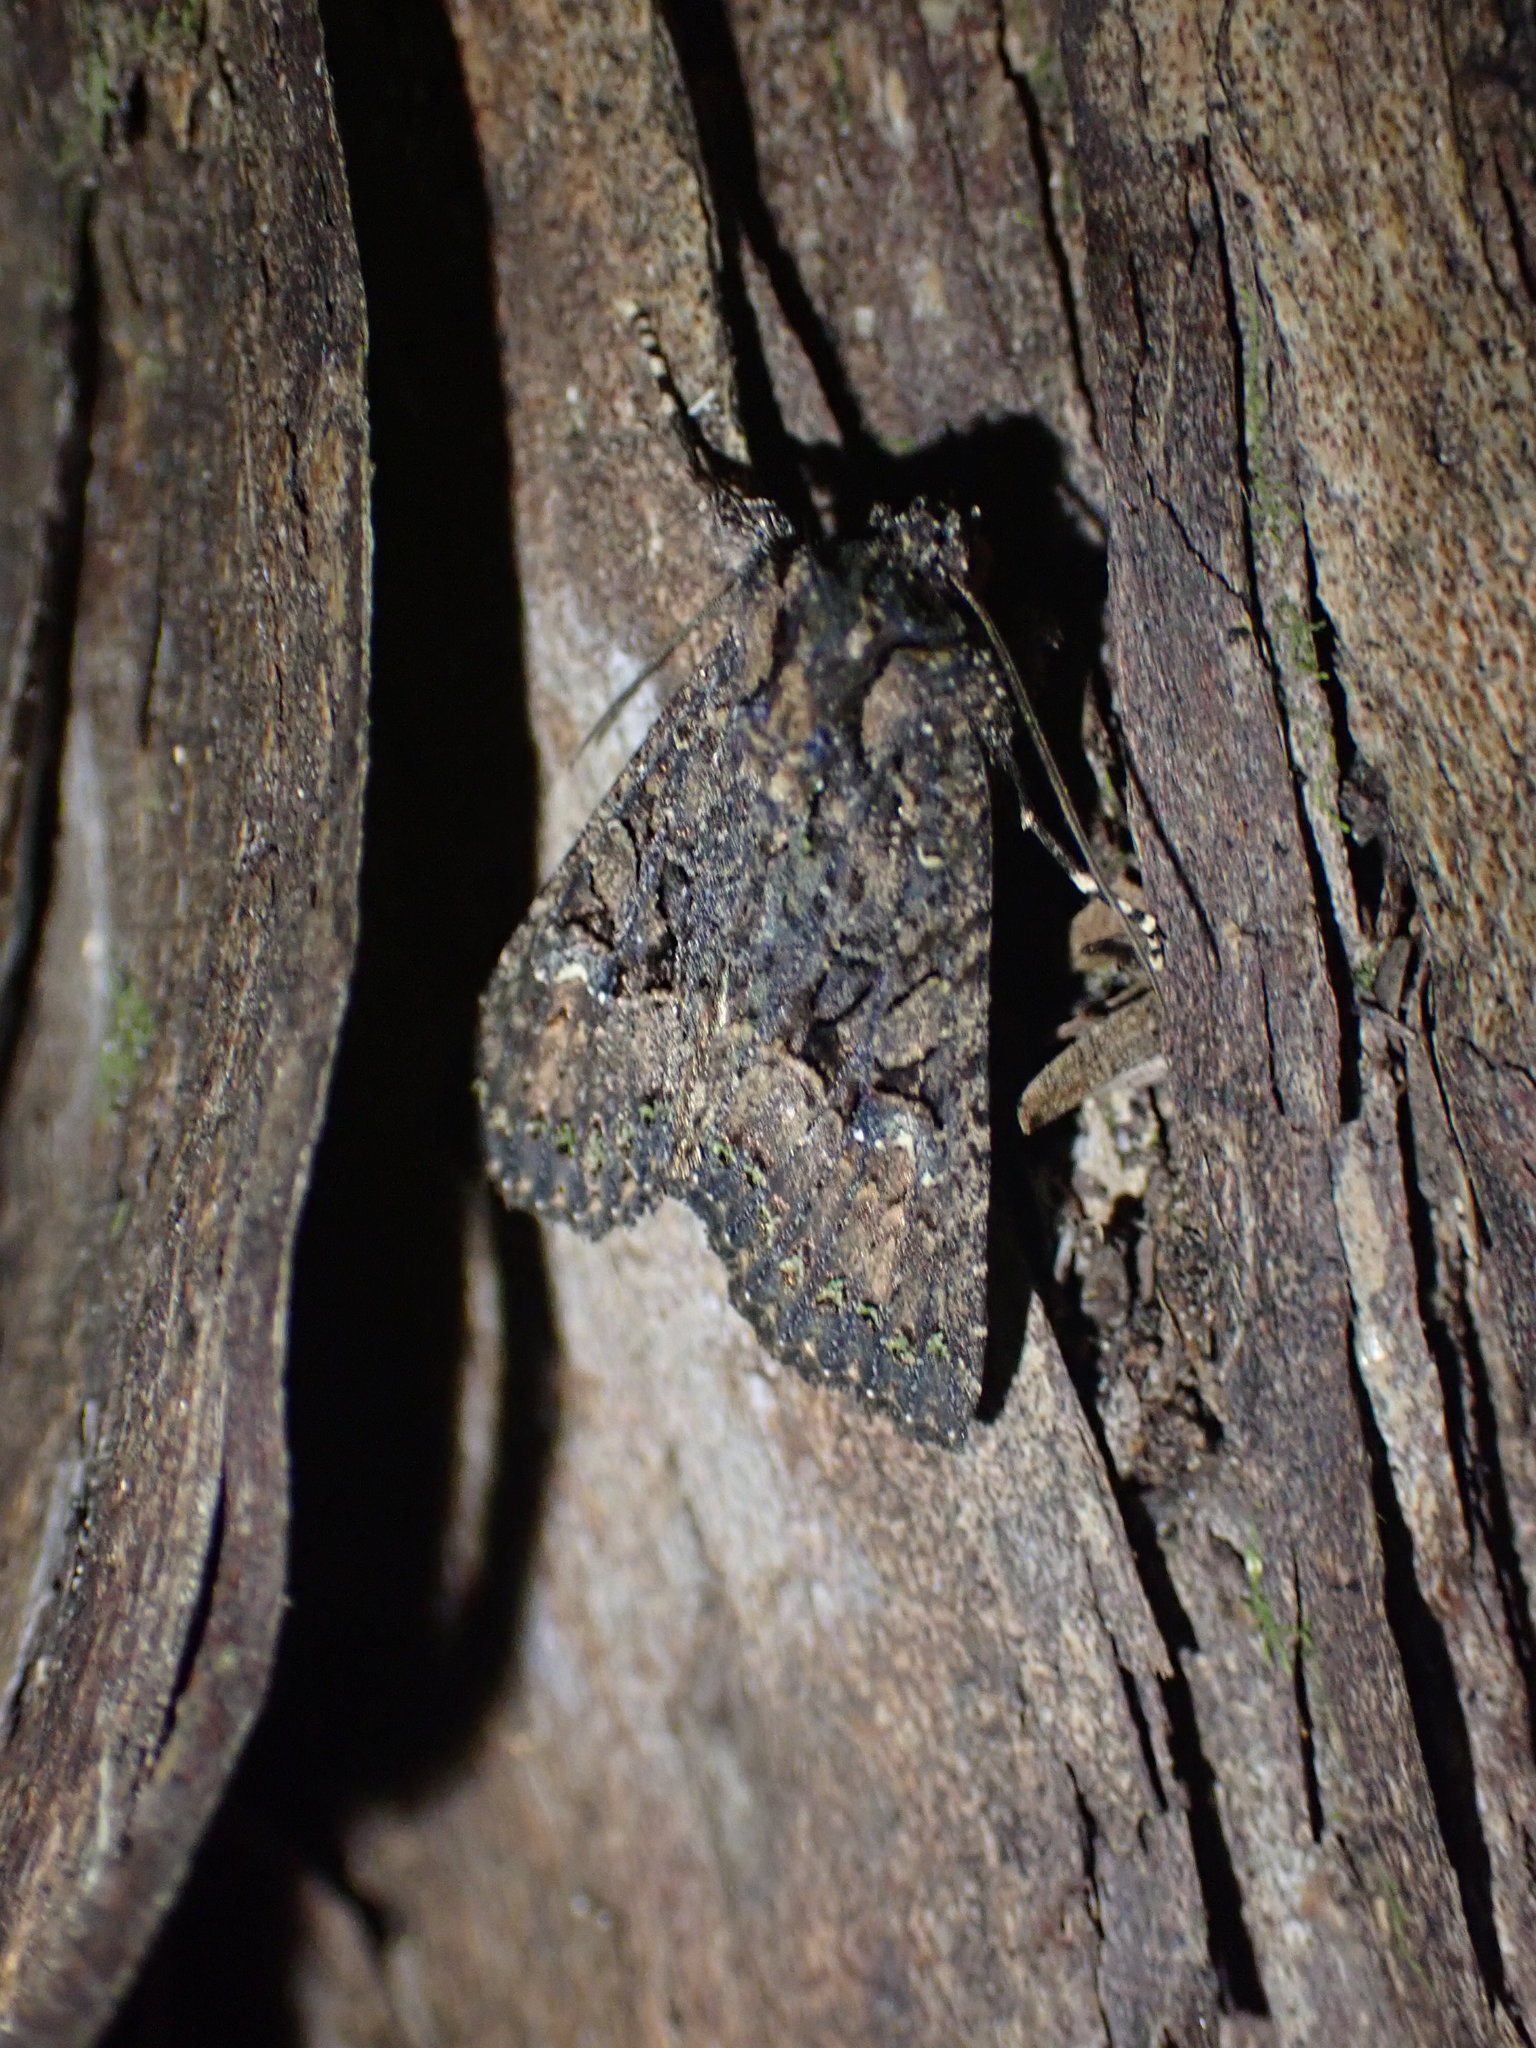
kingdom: Animalia
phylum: Arthropoda
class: Insecta
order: Lepidoptera
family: Noctuidae
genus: Meterana
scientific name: Meterana ochthistis
